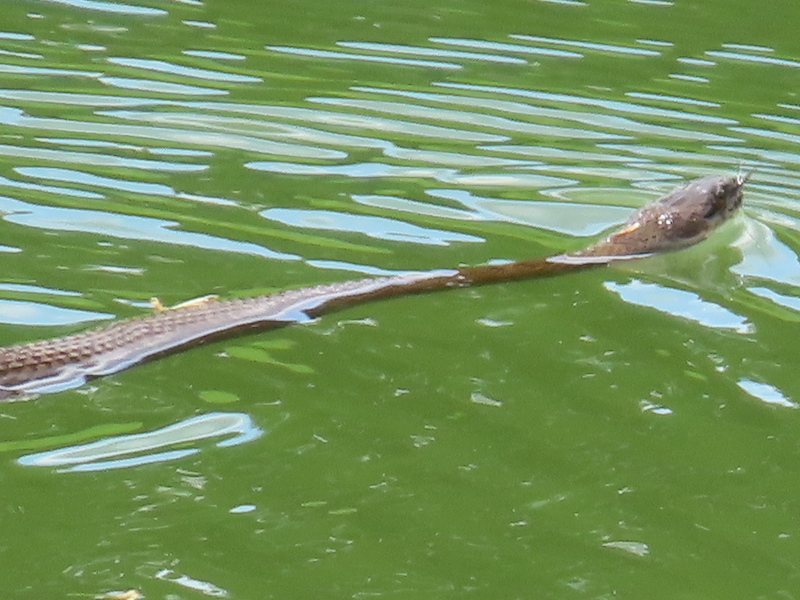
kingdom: Animalia
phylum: Chordata
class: Squamata
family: Colubridae
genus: Nerodia
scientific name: Nerodia sipedon
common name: Northern water snake
